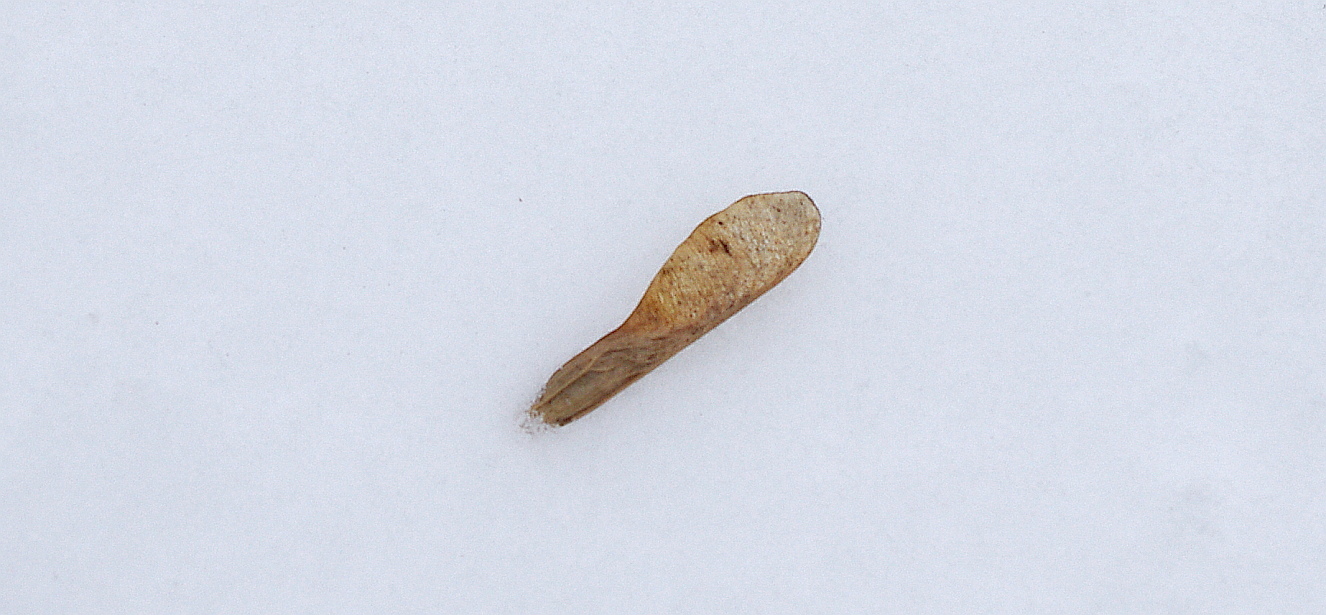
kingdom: Plantae
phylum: Tracheophyta
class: Magnoliopsida
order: Sapindales
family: Sapindaceae
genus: Acer
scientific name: Acer negundo
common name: Ashleaf maple
